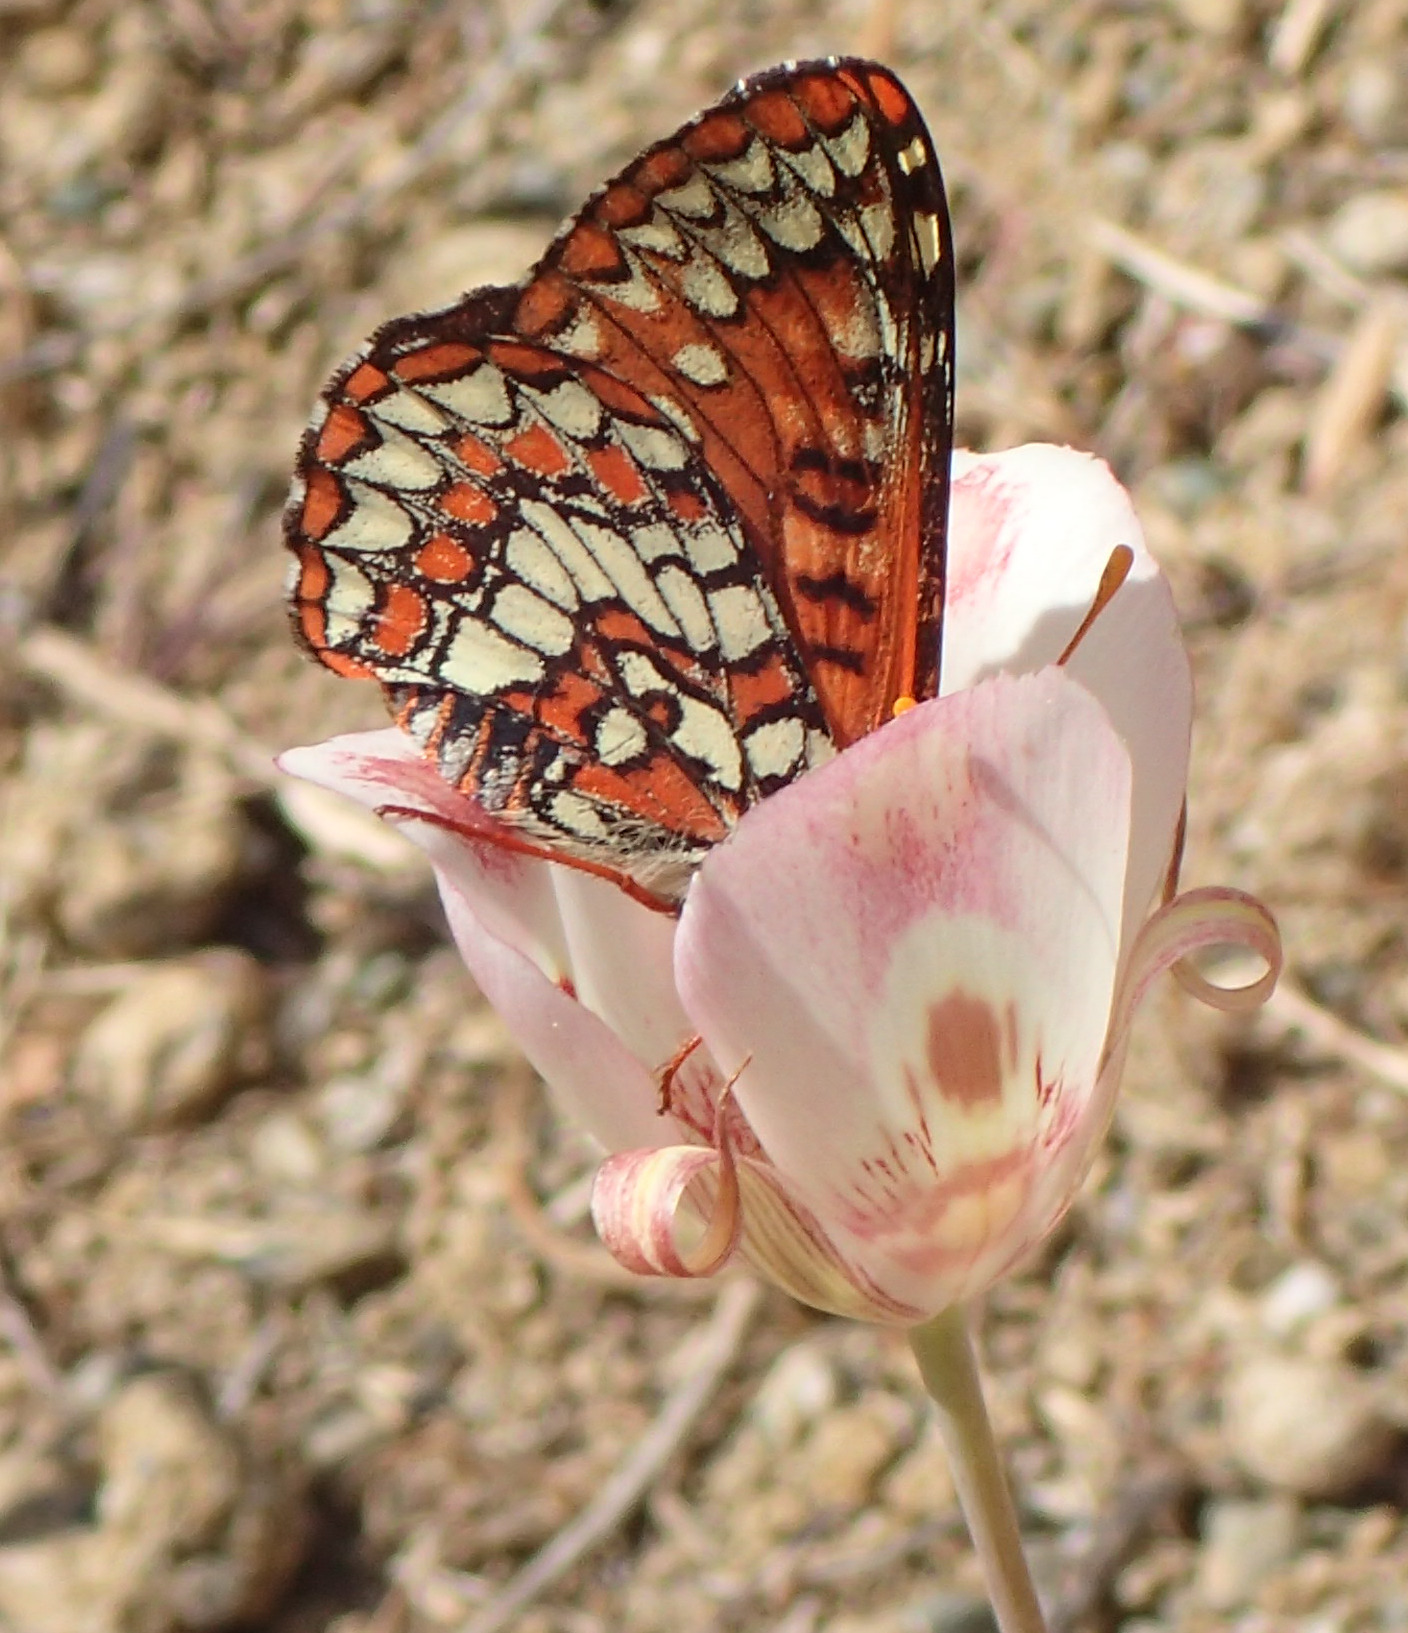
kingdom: Animalia
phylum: Arthropoda
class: Insecta
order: Lepidoptera
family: Nymphalidae
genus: Occidryas
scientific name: Occidryas chalcedona
